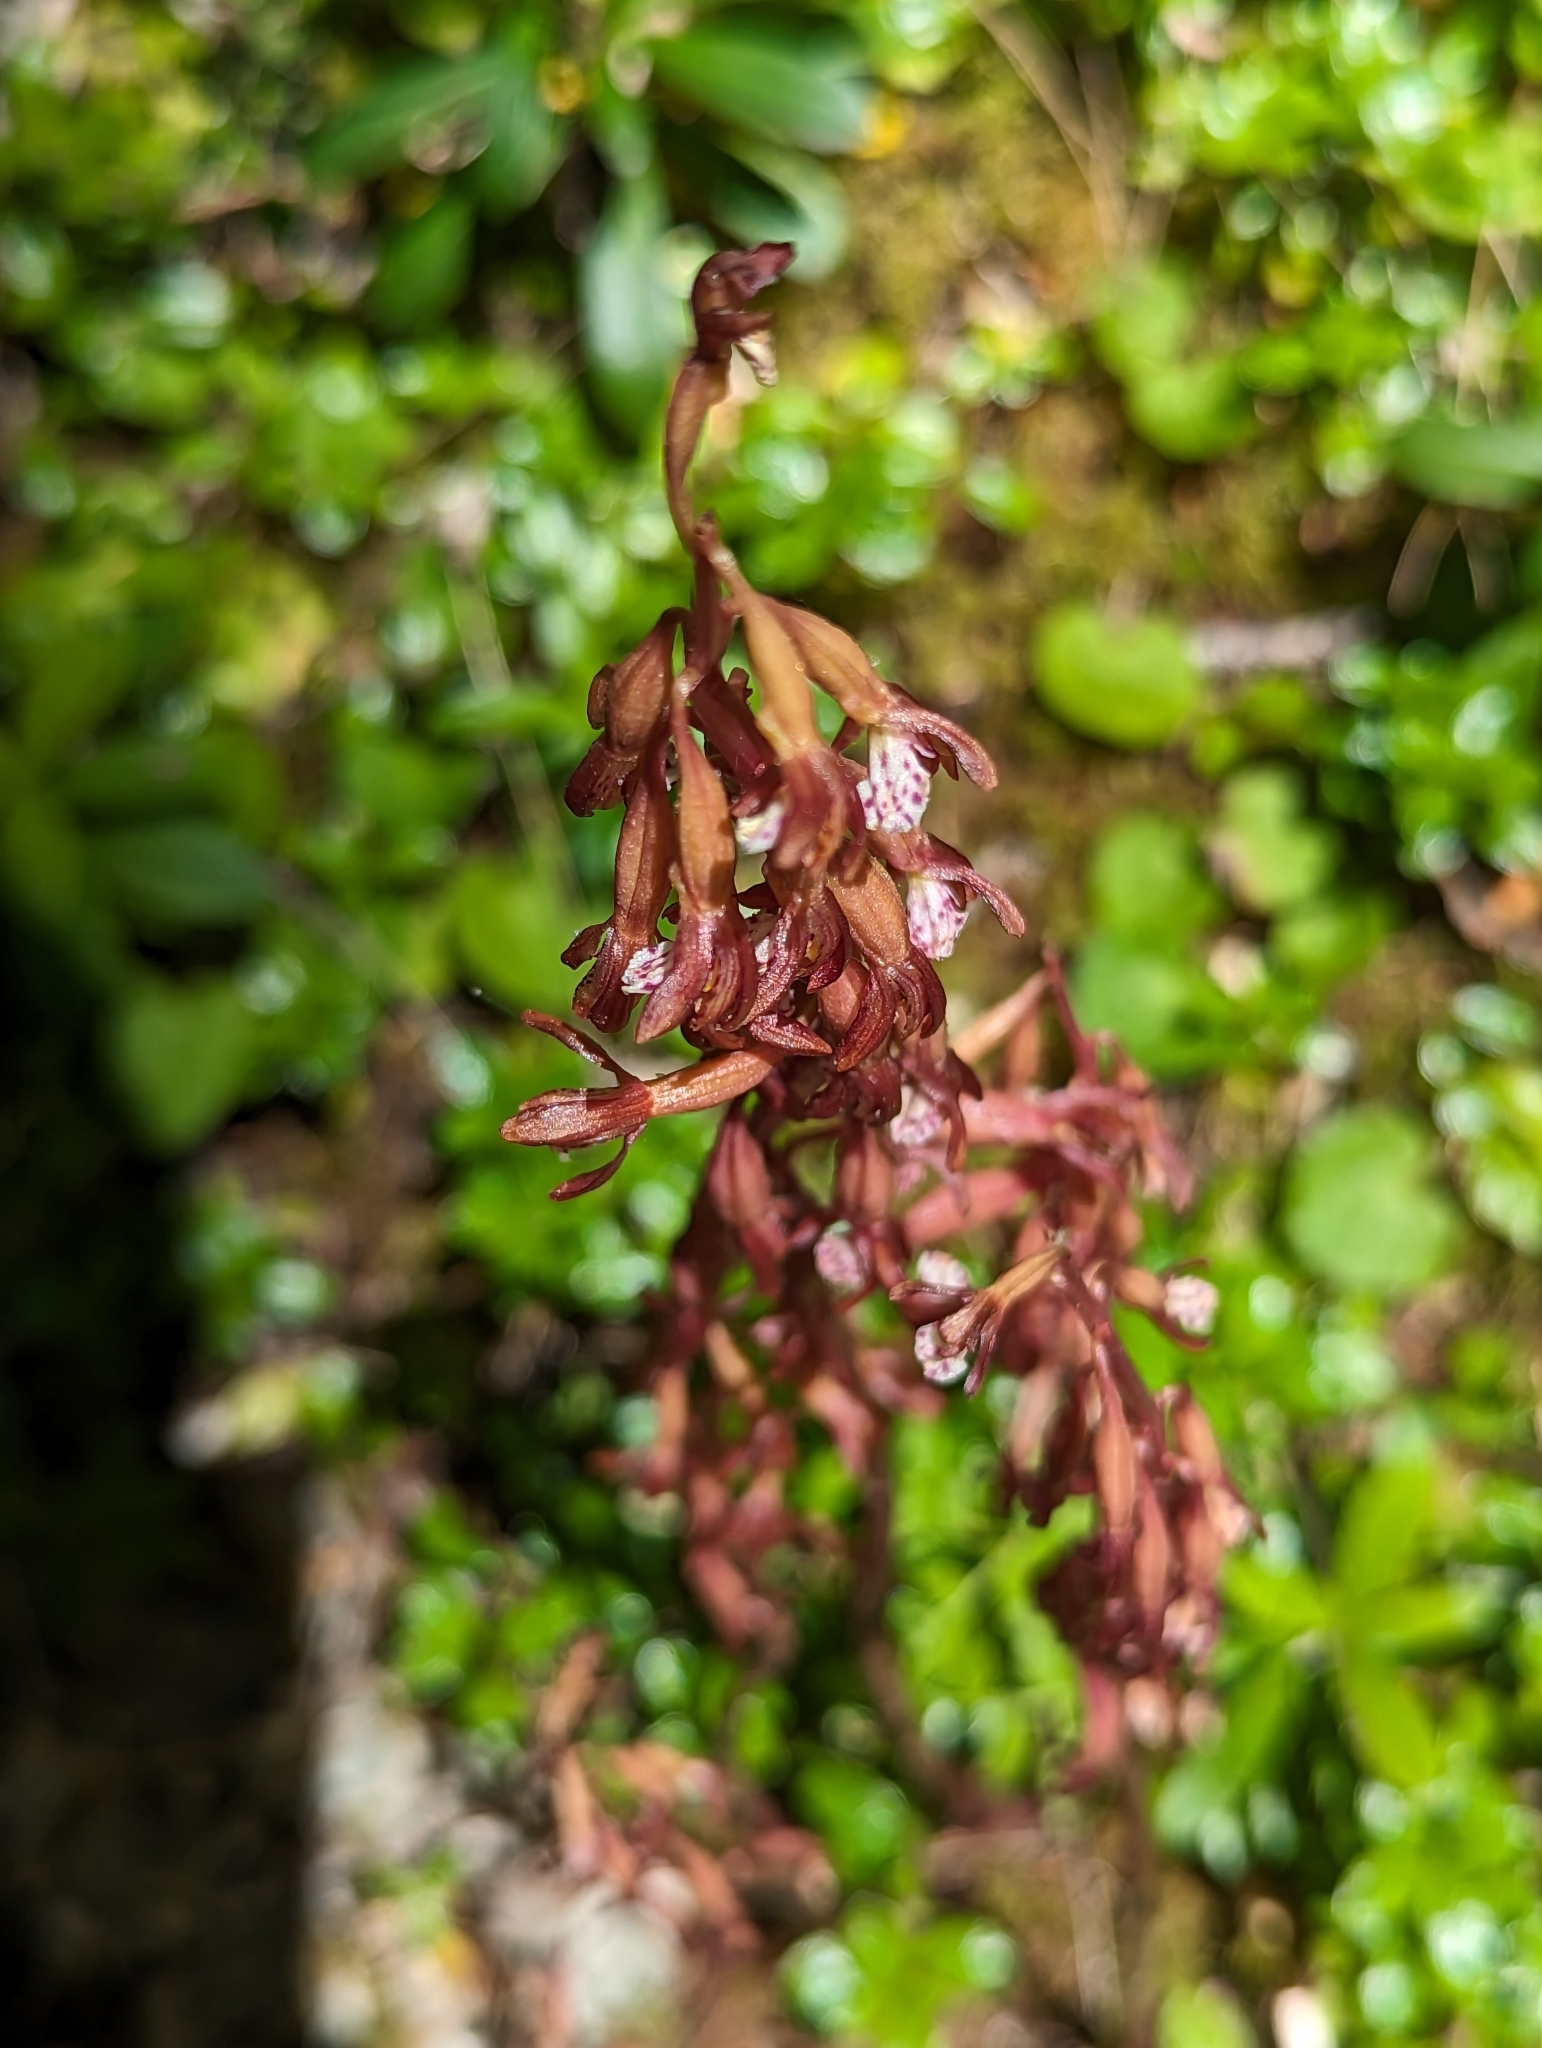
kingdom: Plantae
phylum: Tracheophyta
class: Liliopsida
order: Asparagales
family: Orchidaceae
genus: Corallorhiza
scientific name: Corallorhiza maculata
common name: Spotted coralroot
